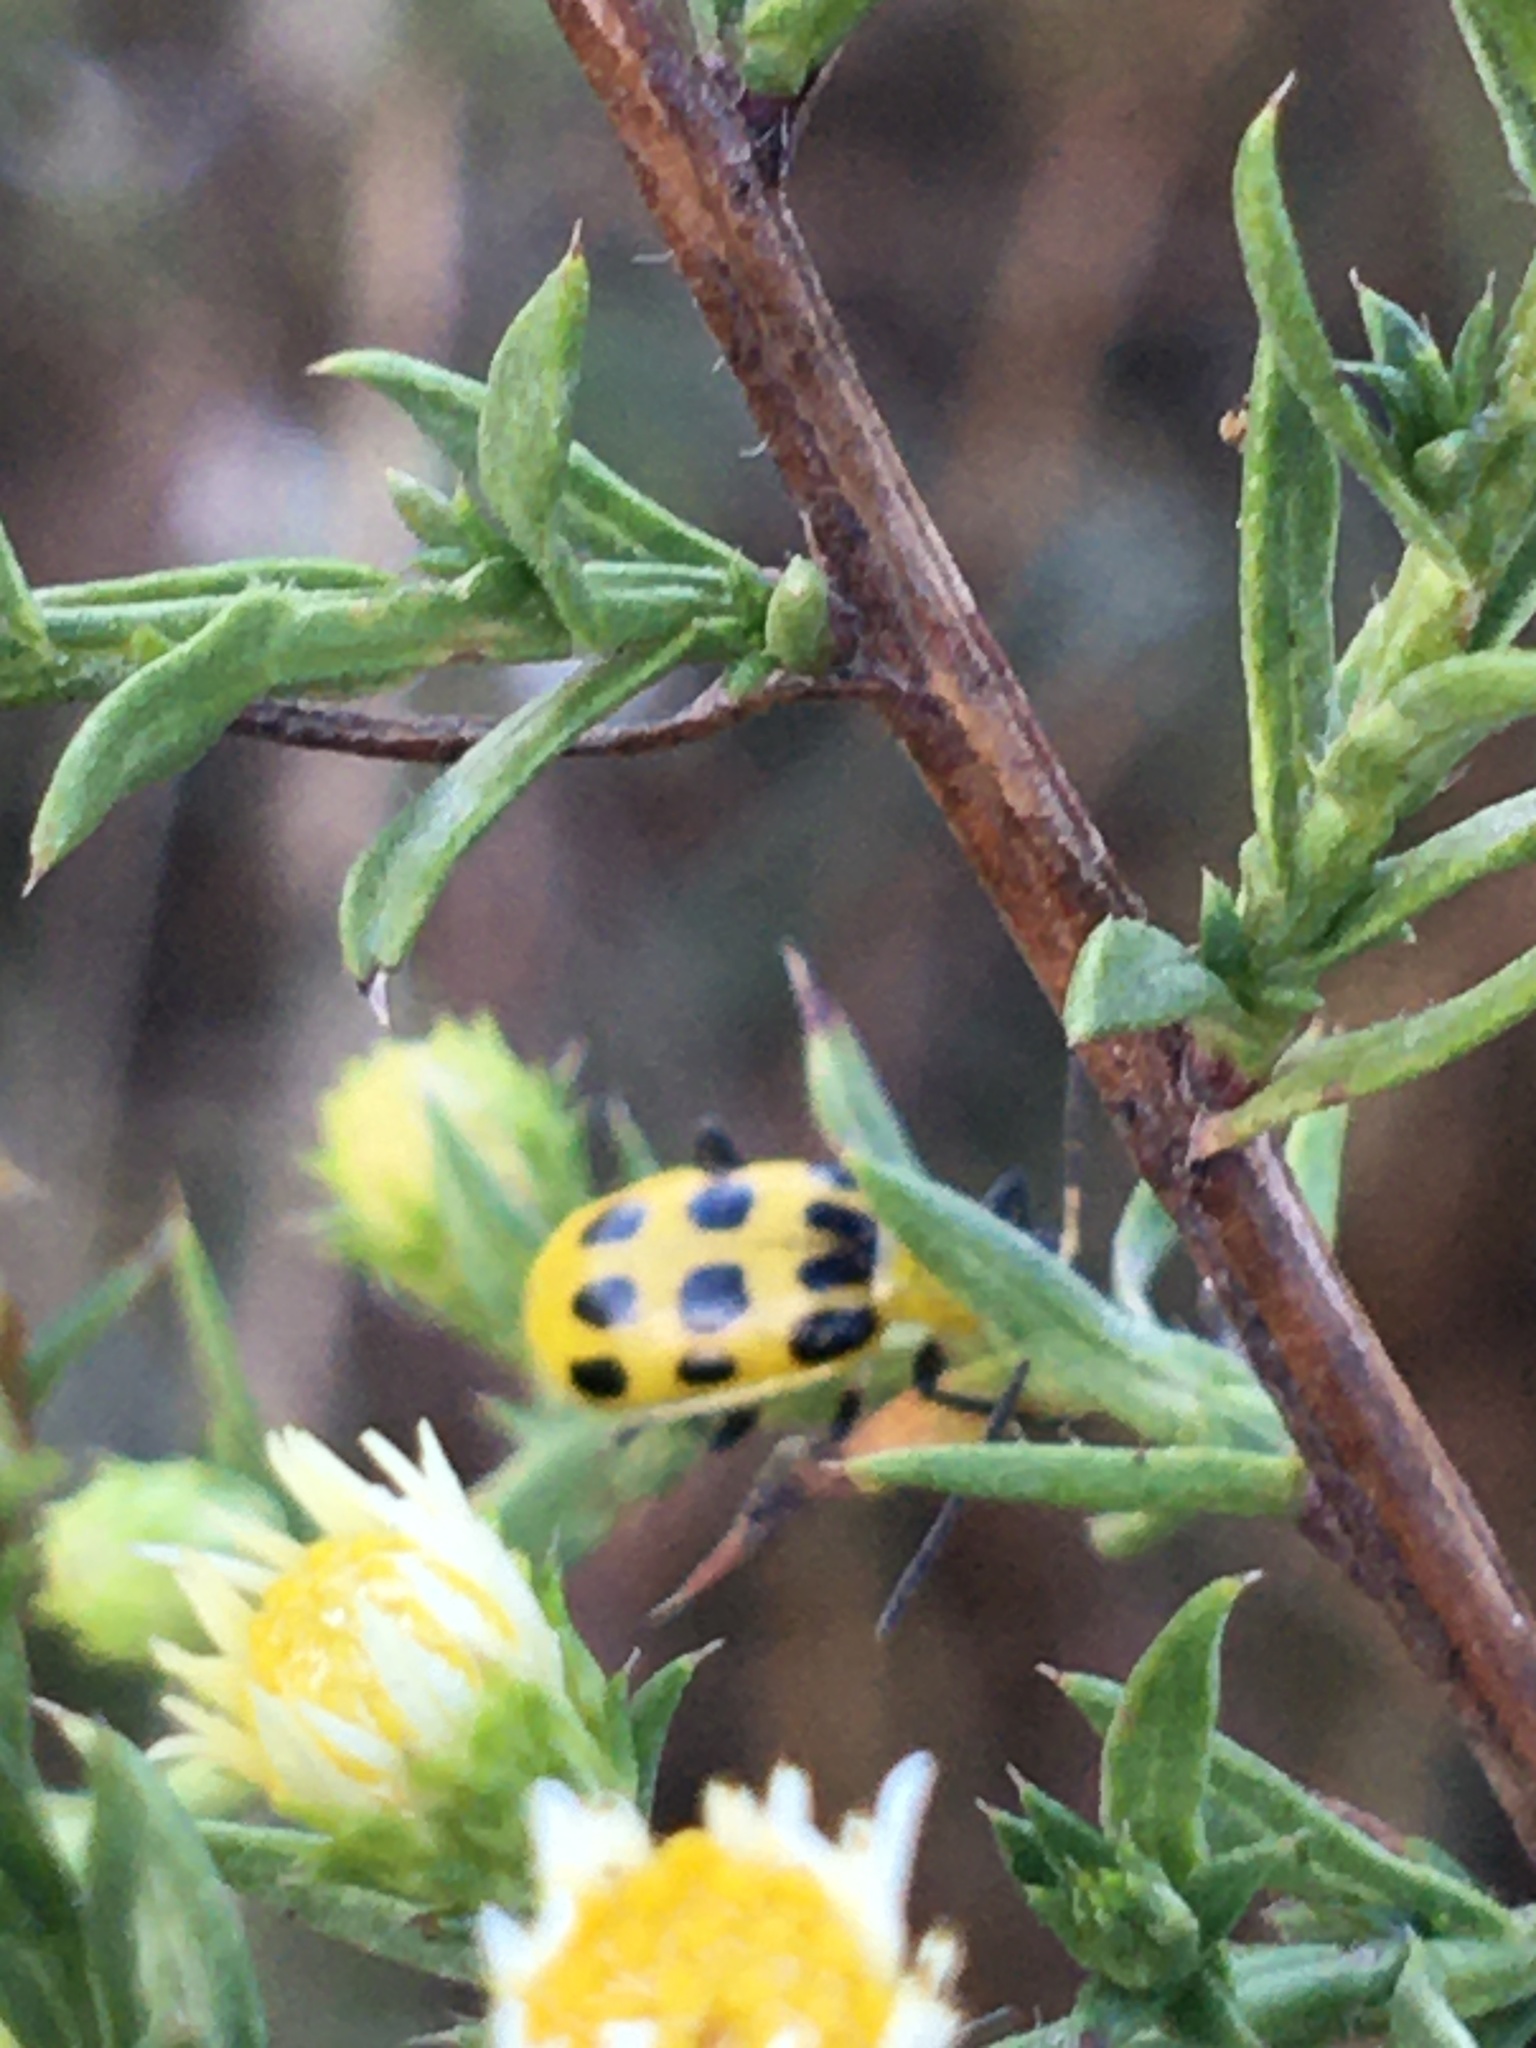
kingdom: Animalia
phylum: Arthropoda
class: Insecta
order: Coleoptera
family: Chrysomelidae
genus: Diabrotica
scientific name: Diabrotica undecimpunctata
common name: Spotted cucumber beetle
